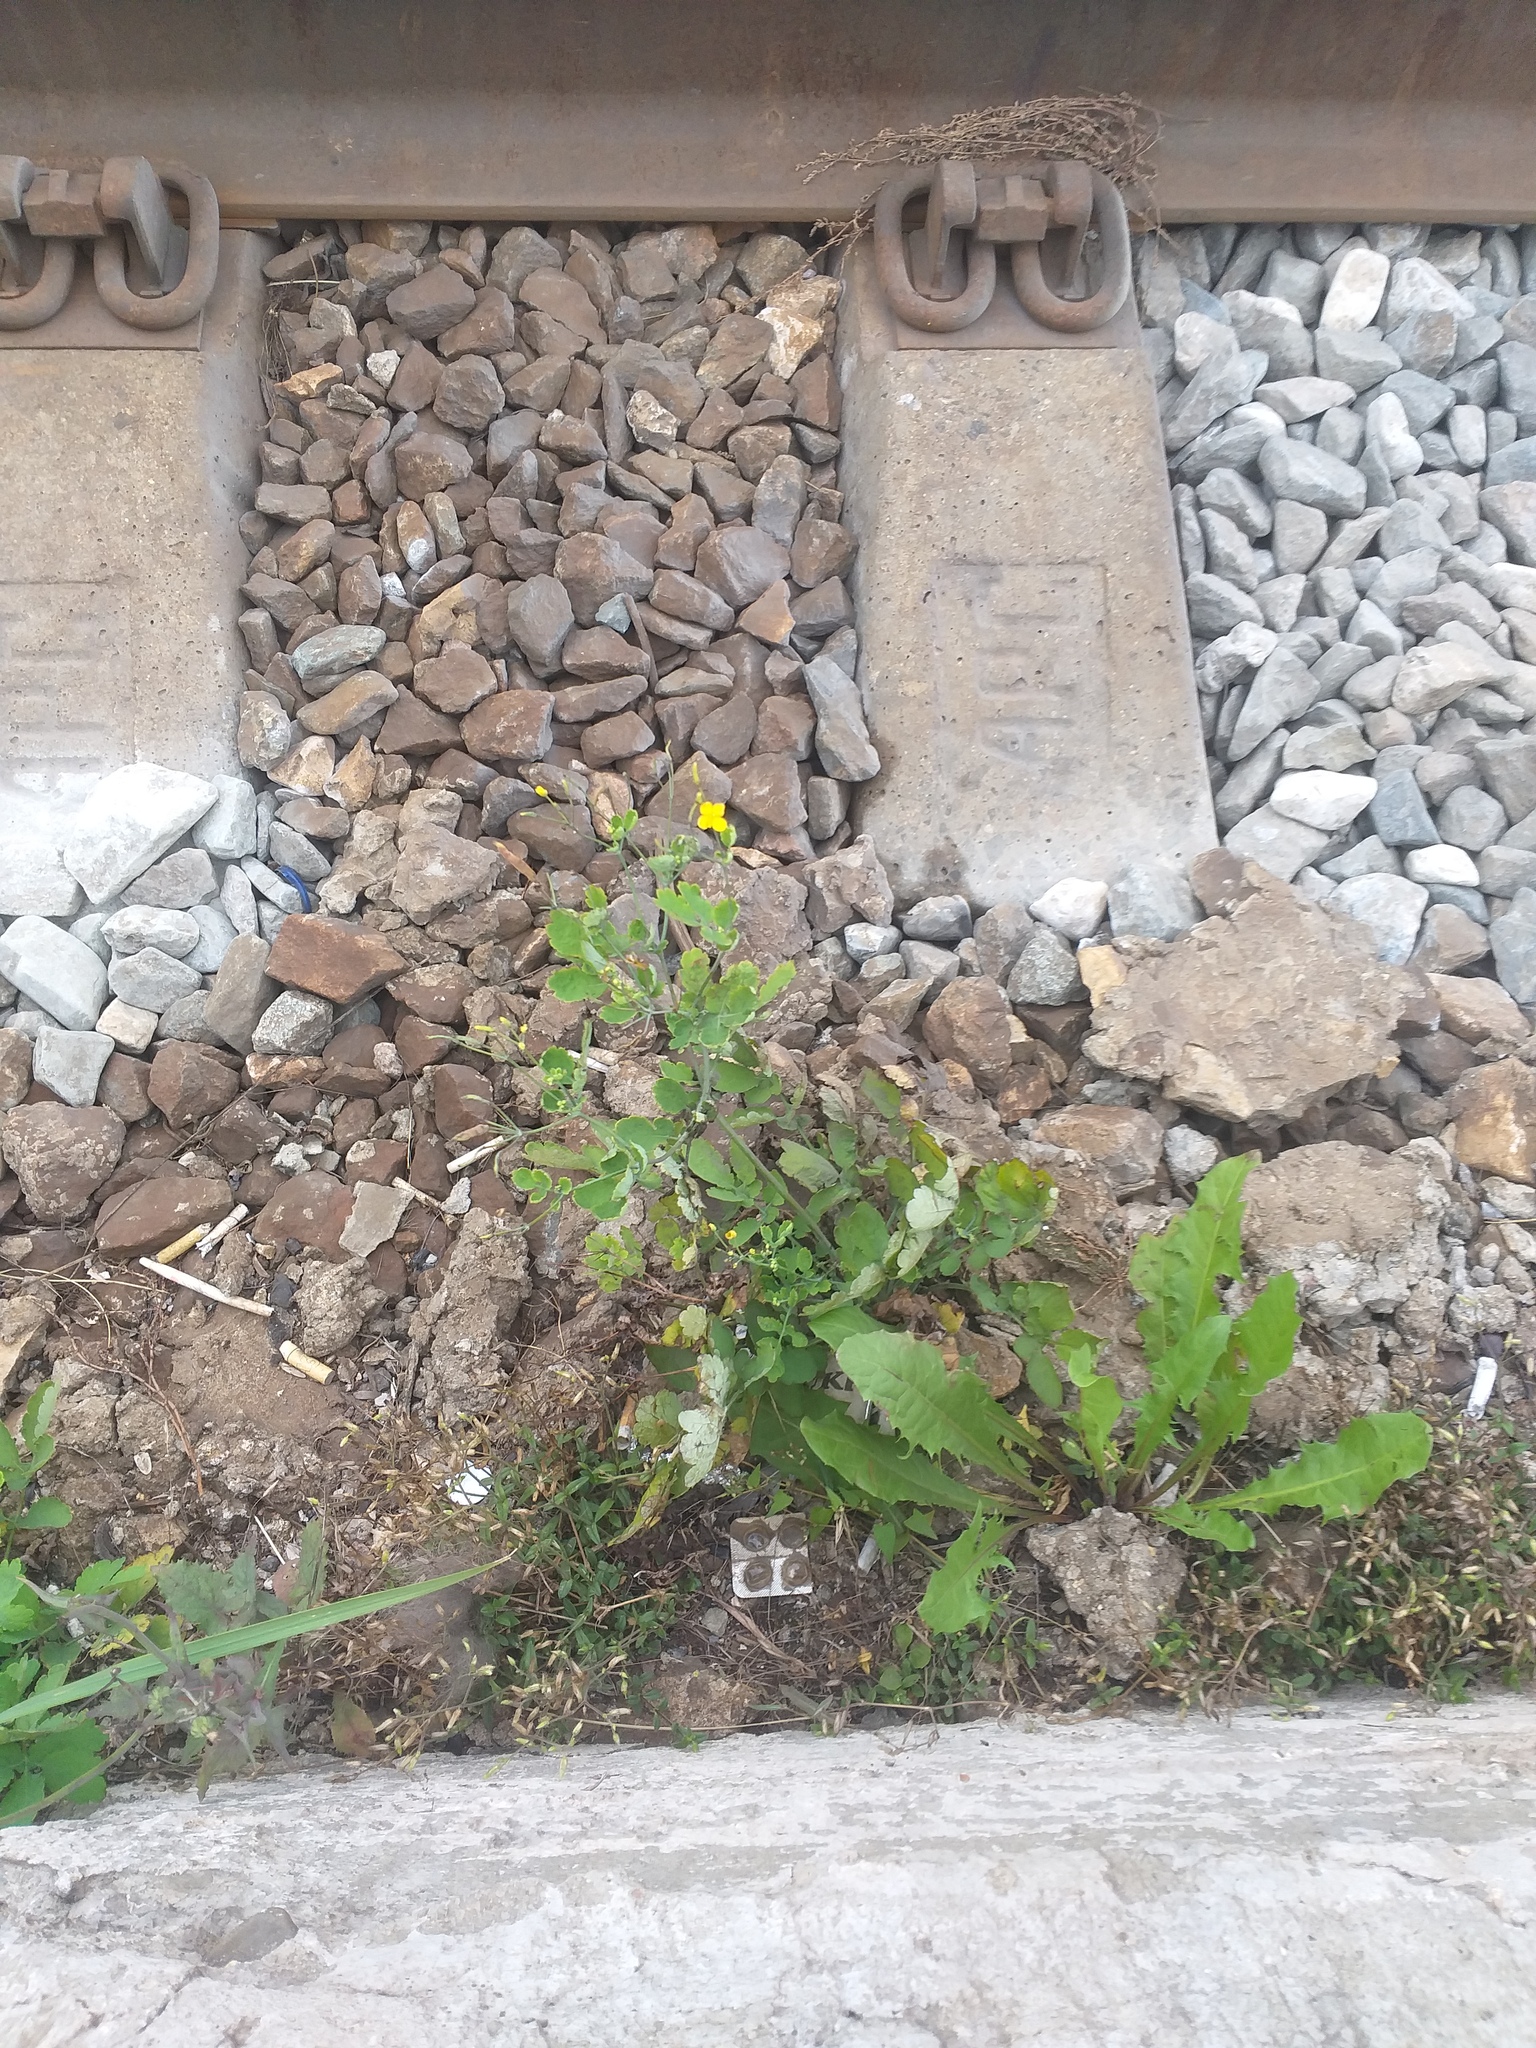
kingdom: Plantae
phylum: Tracheophyta
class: Magnoliopsida
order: Ranunculales
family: Papaveraceae
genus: Chelidonium
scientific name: Chelidonium majus
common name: Greater celandine
